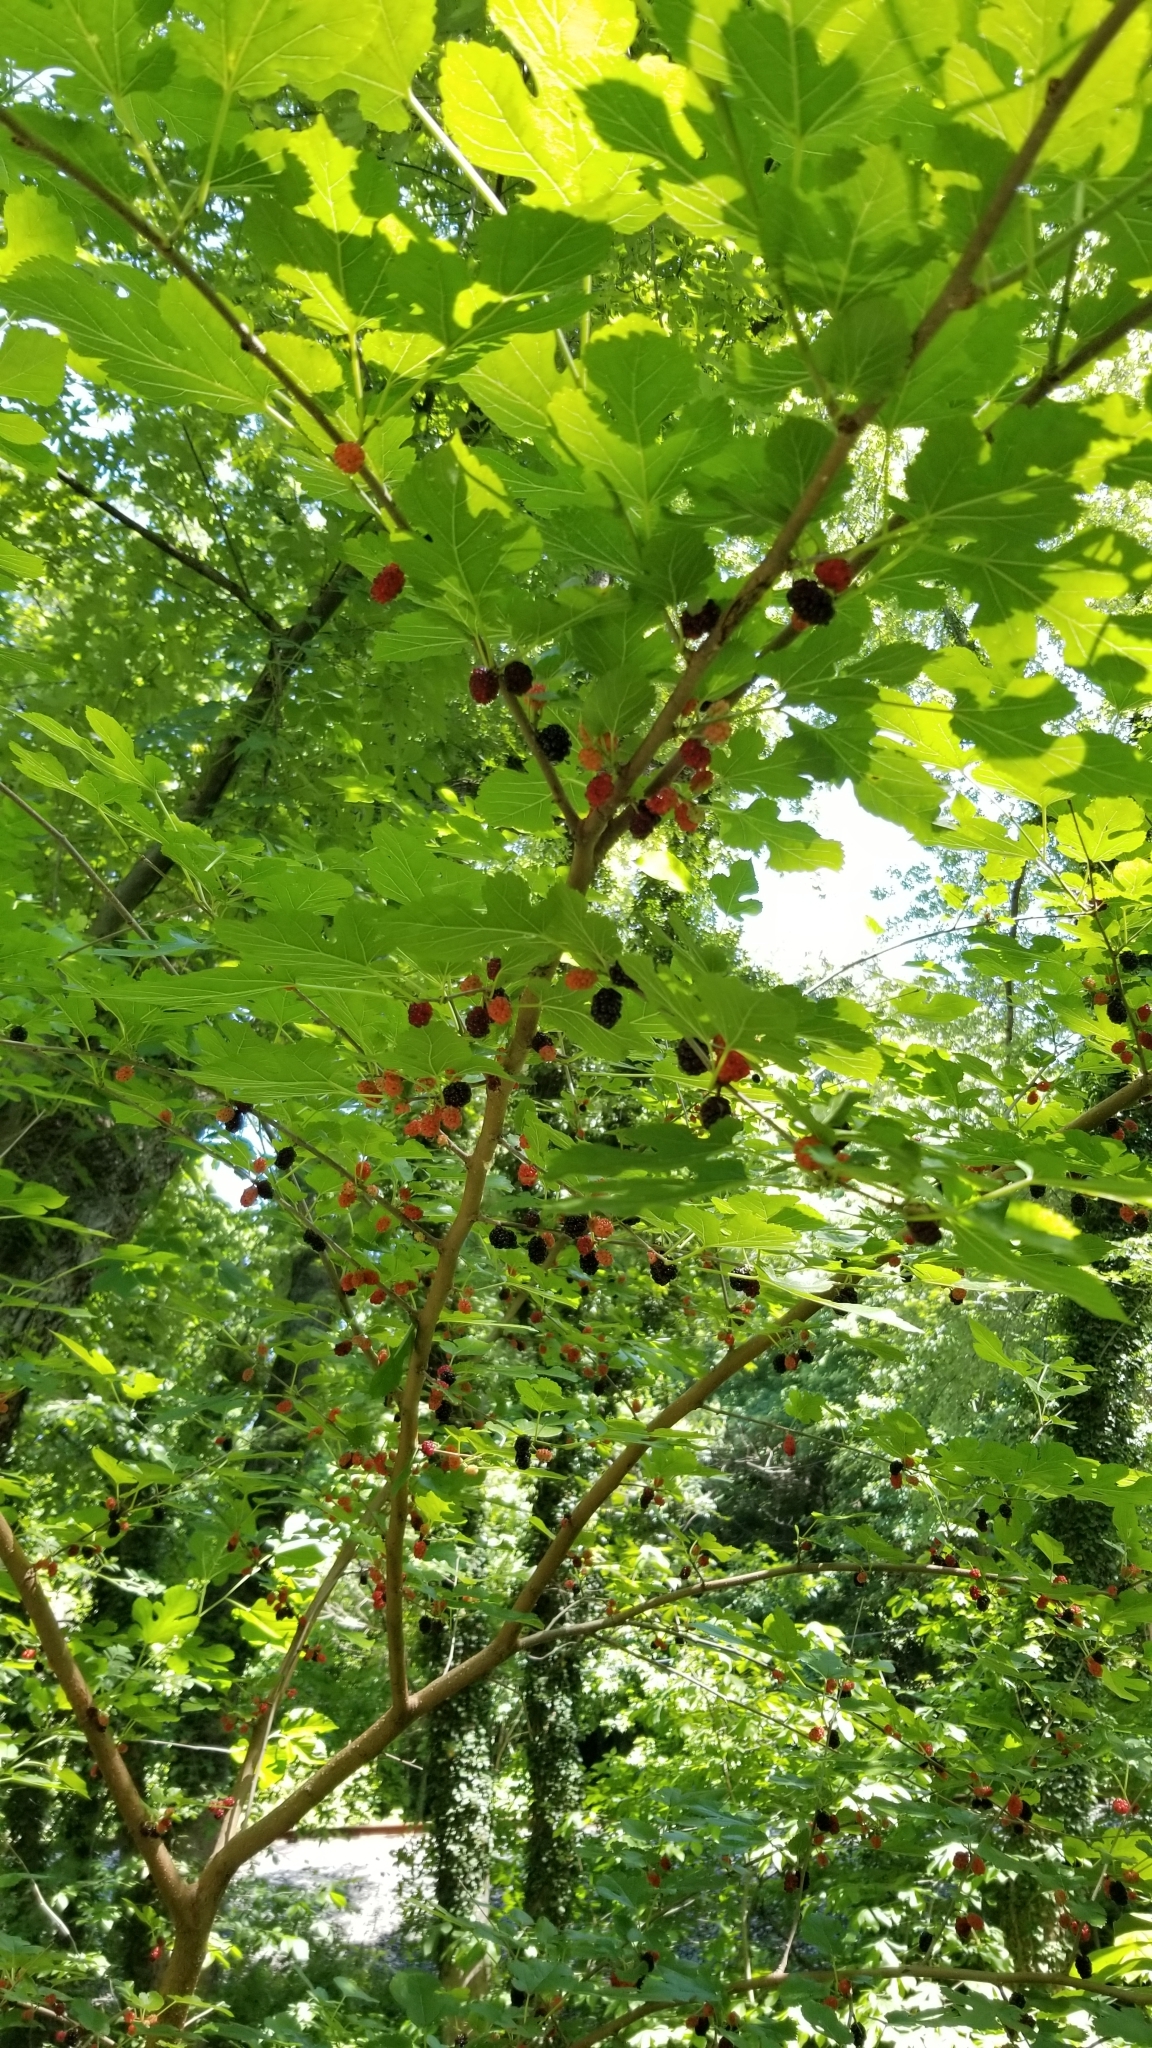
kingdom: Plantae
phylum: Tracheophyta
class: Magnoliopsida
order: Rosales
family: Moraceae
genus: Morus
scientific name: Morus alba
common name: White mulberry
